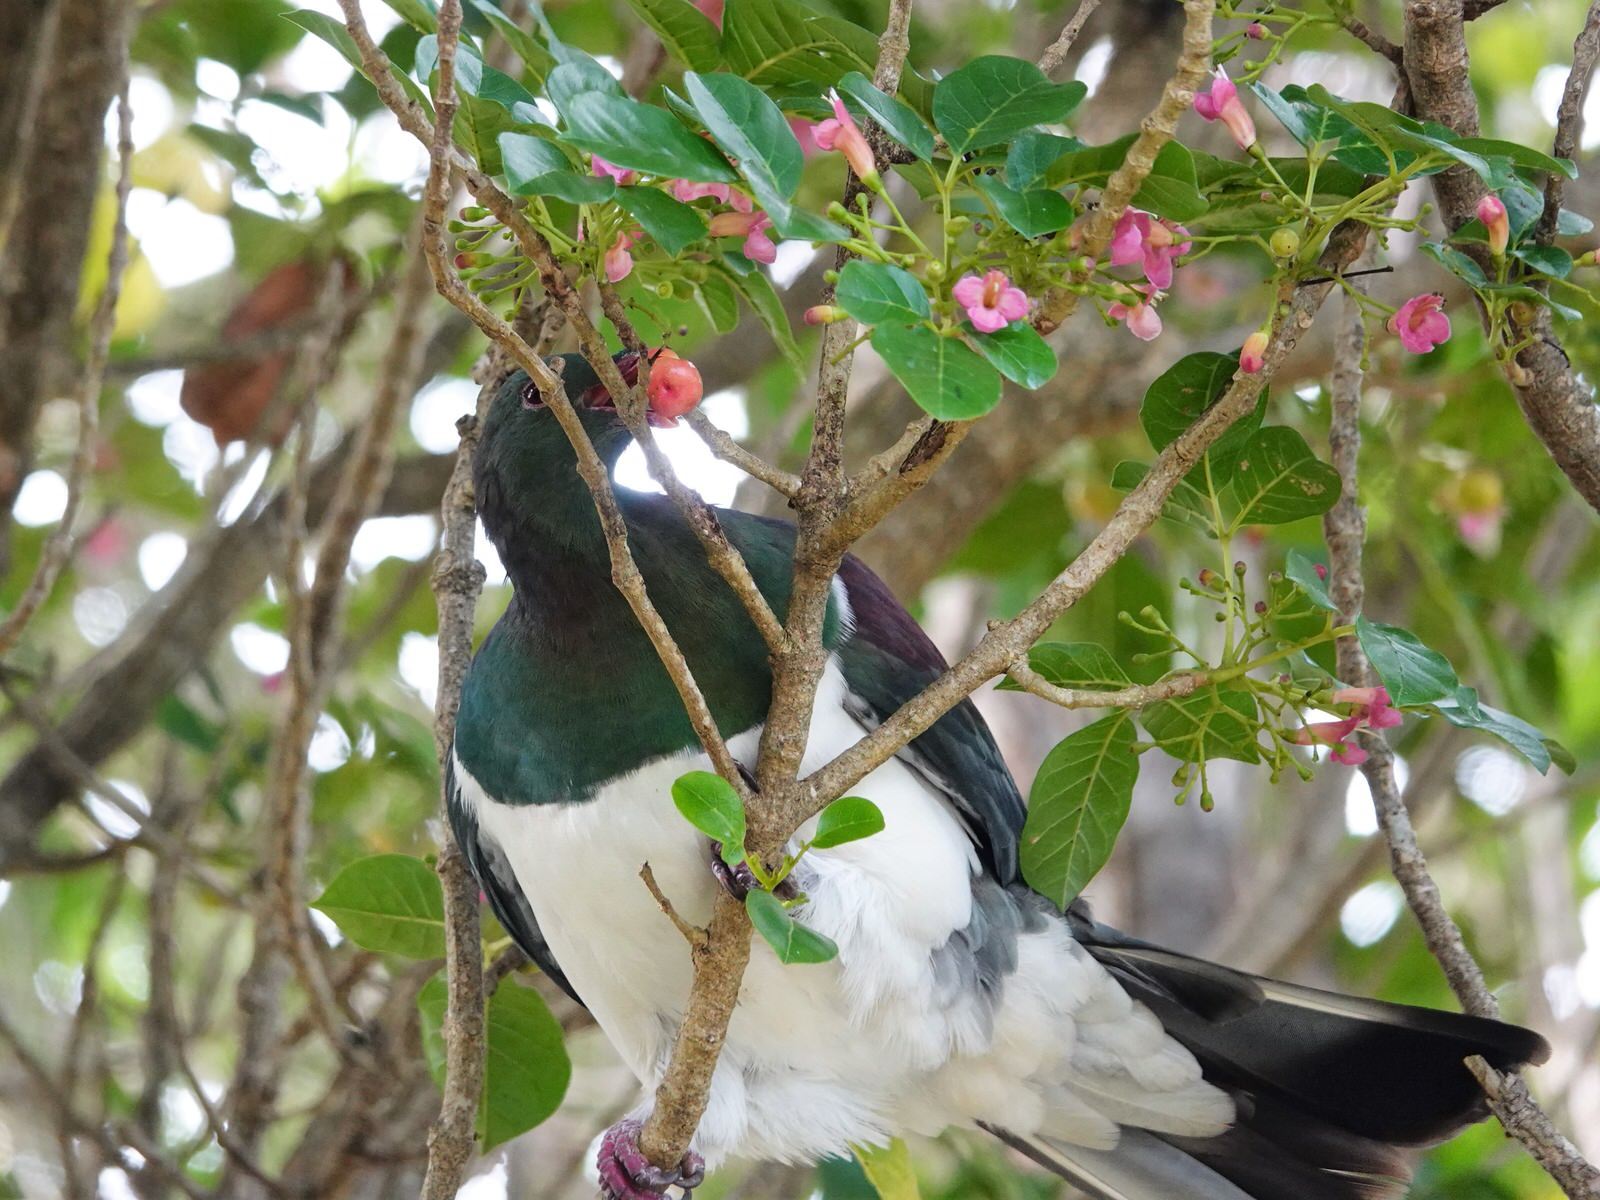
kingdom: Animalia
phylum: Chordata
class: Aves
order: Columbiformes
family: Columbidae
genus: Hemiphaga
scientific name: Hemiphaga novaeseelandiae
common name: New zealand pigeon
